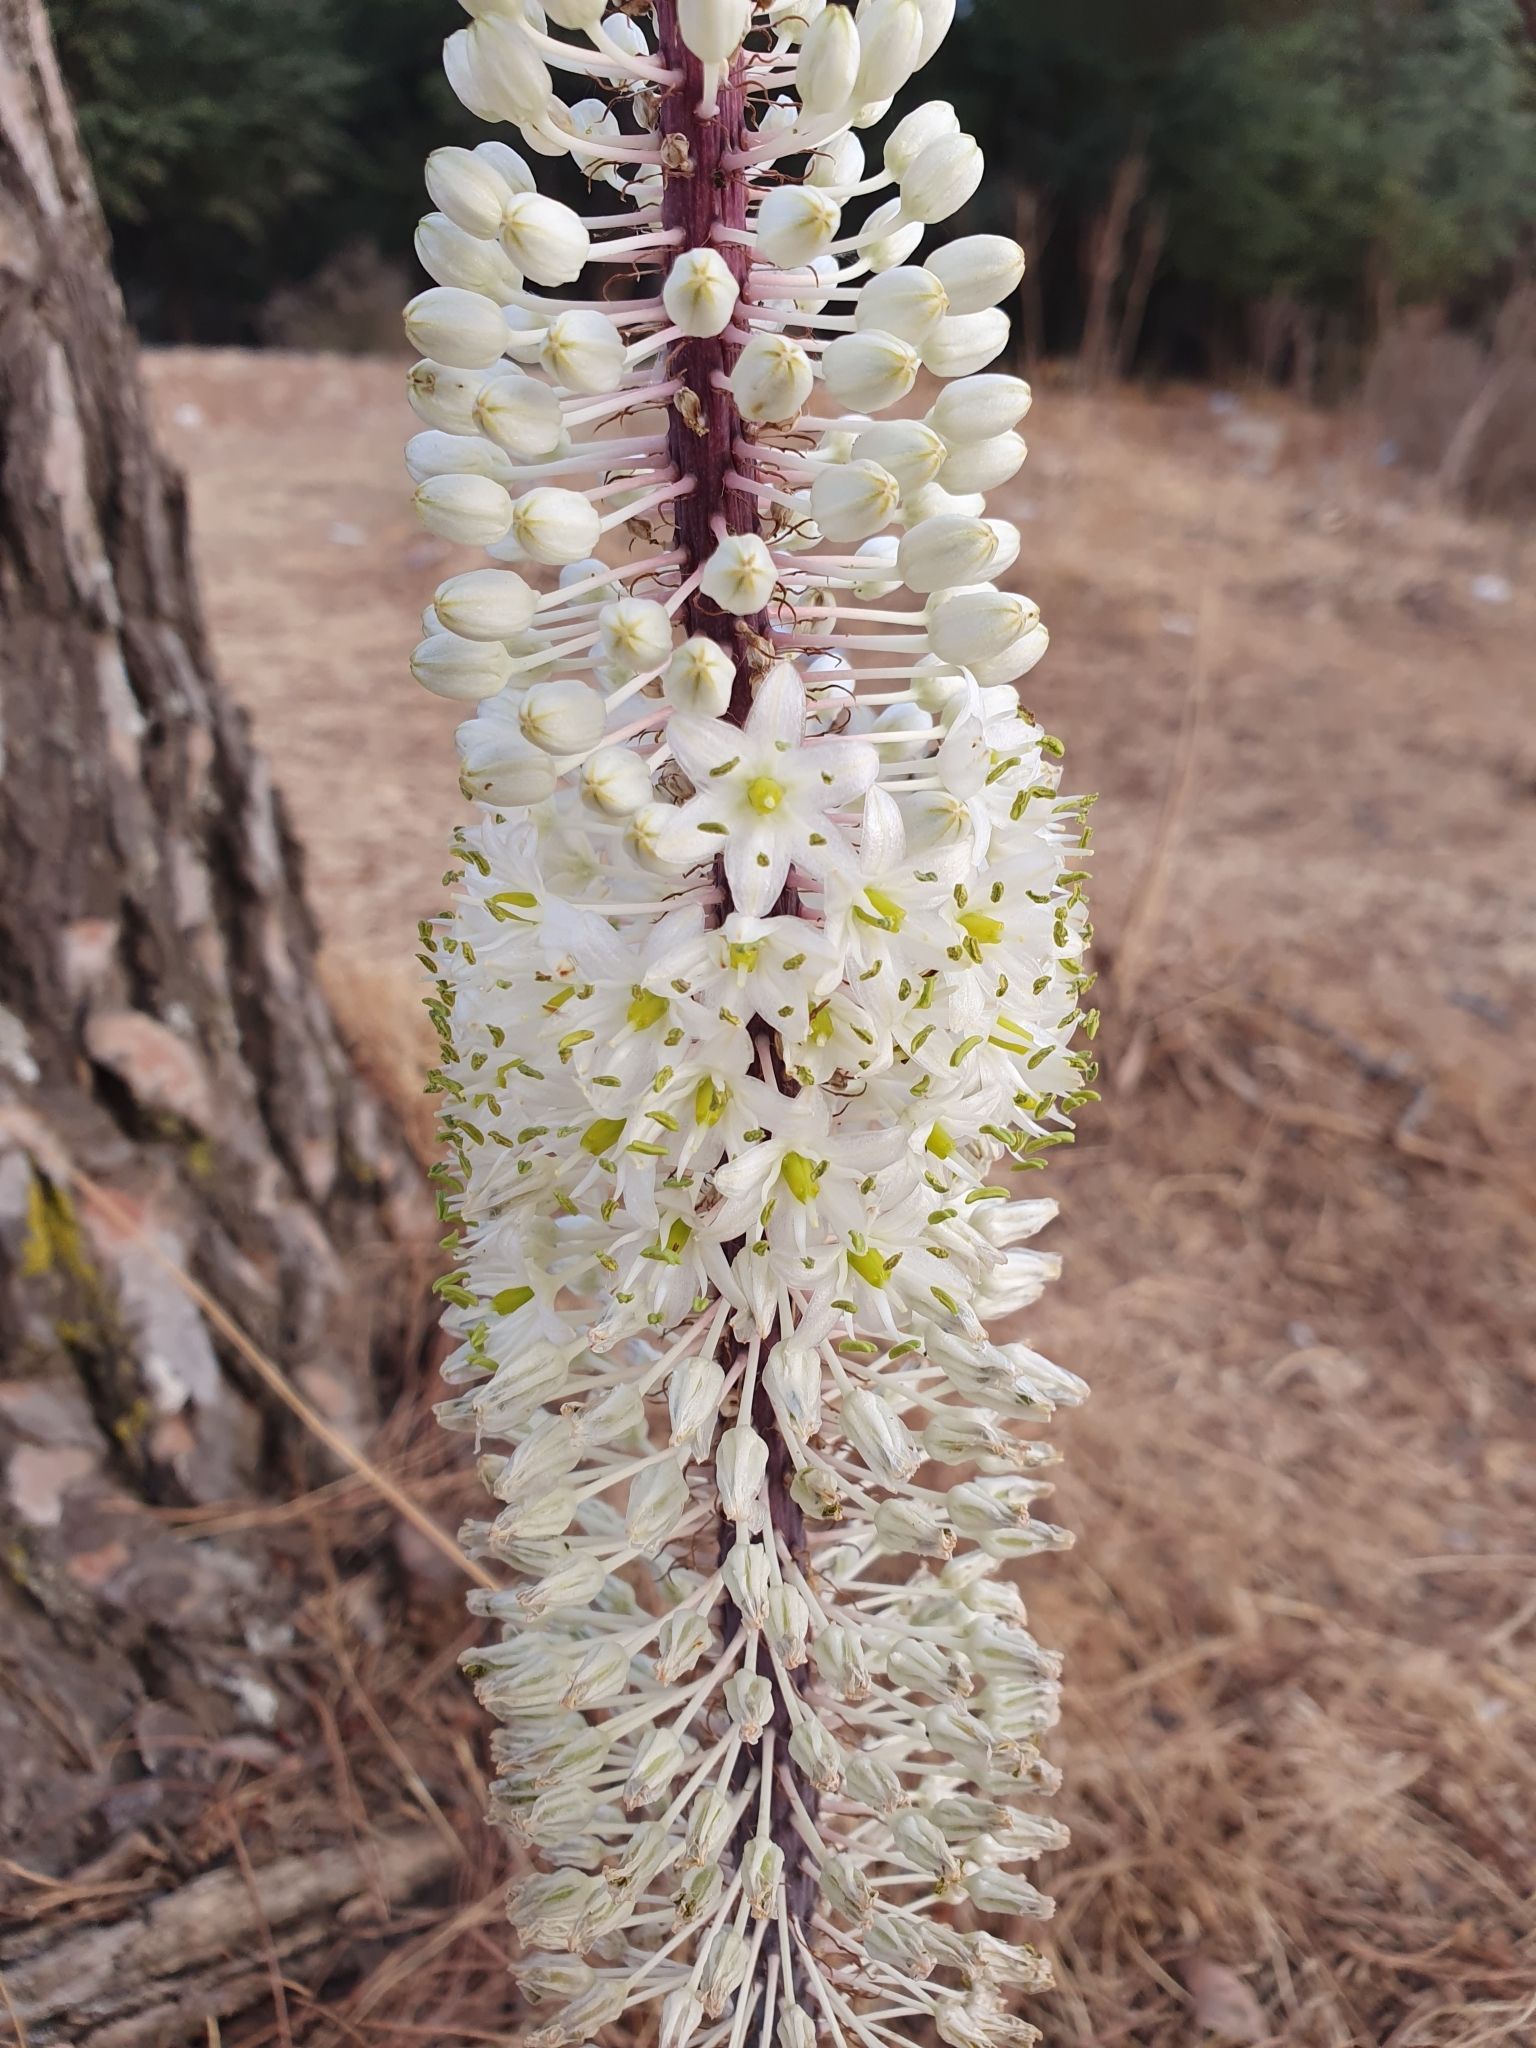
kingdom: Plantae
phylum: Tracheophyta
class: Liliopsida
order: Asparagales
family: Asparagaceae
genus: Drimia
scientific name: Drimia numidica
